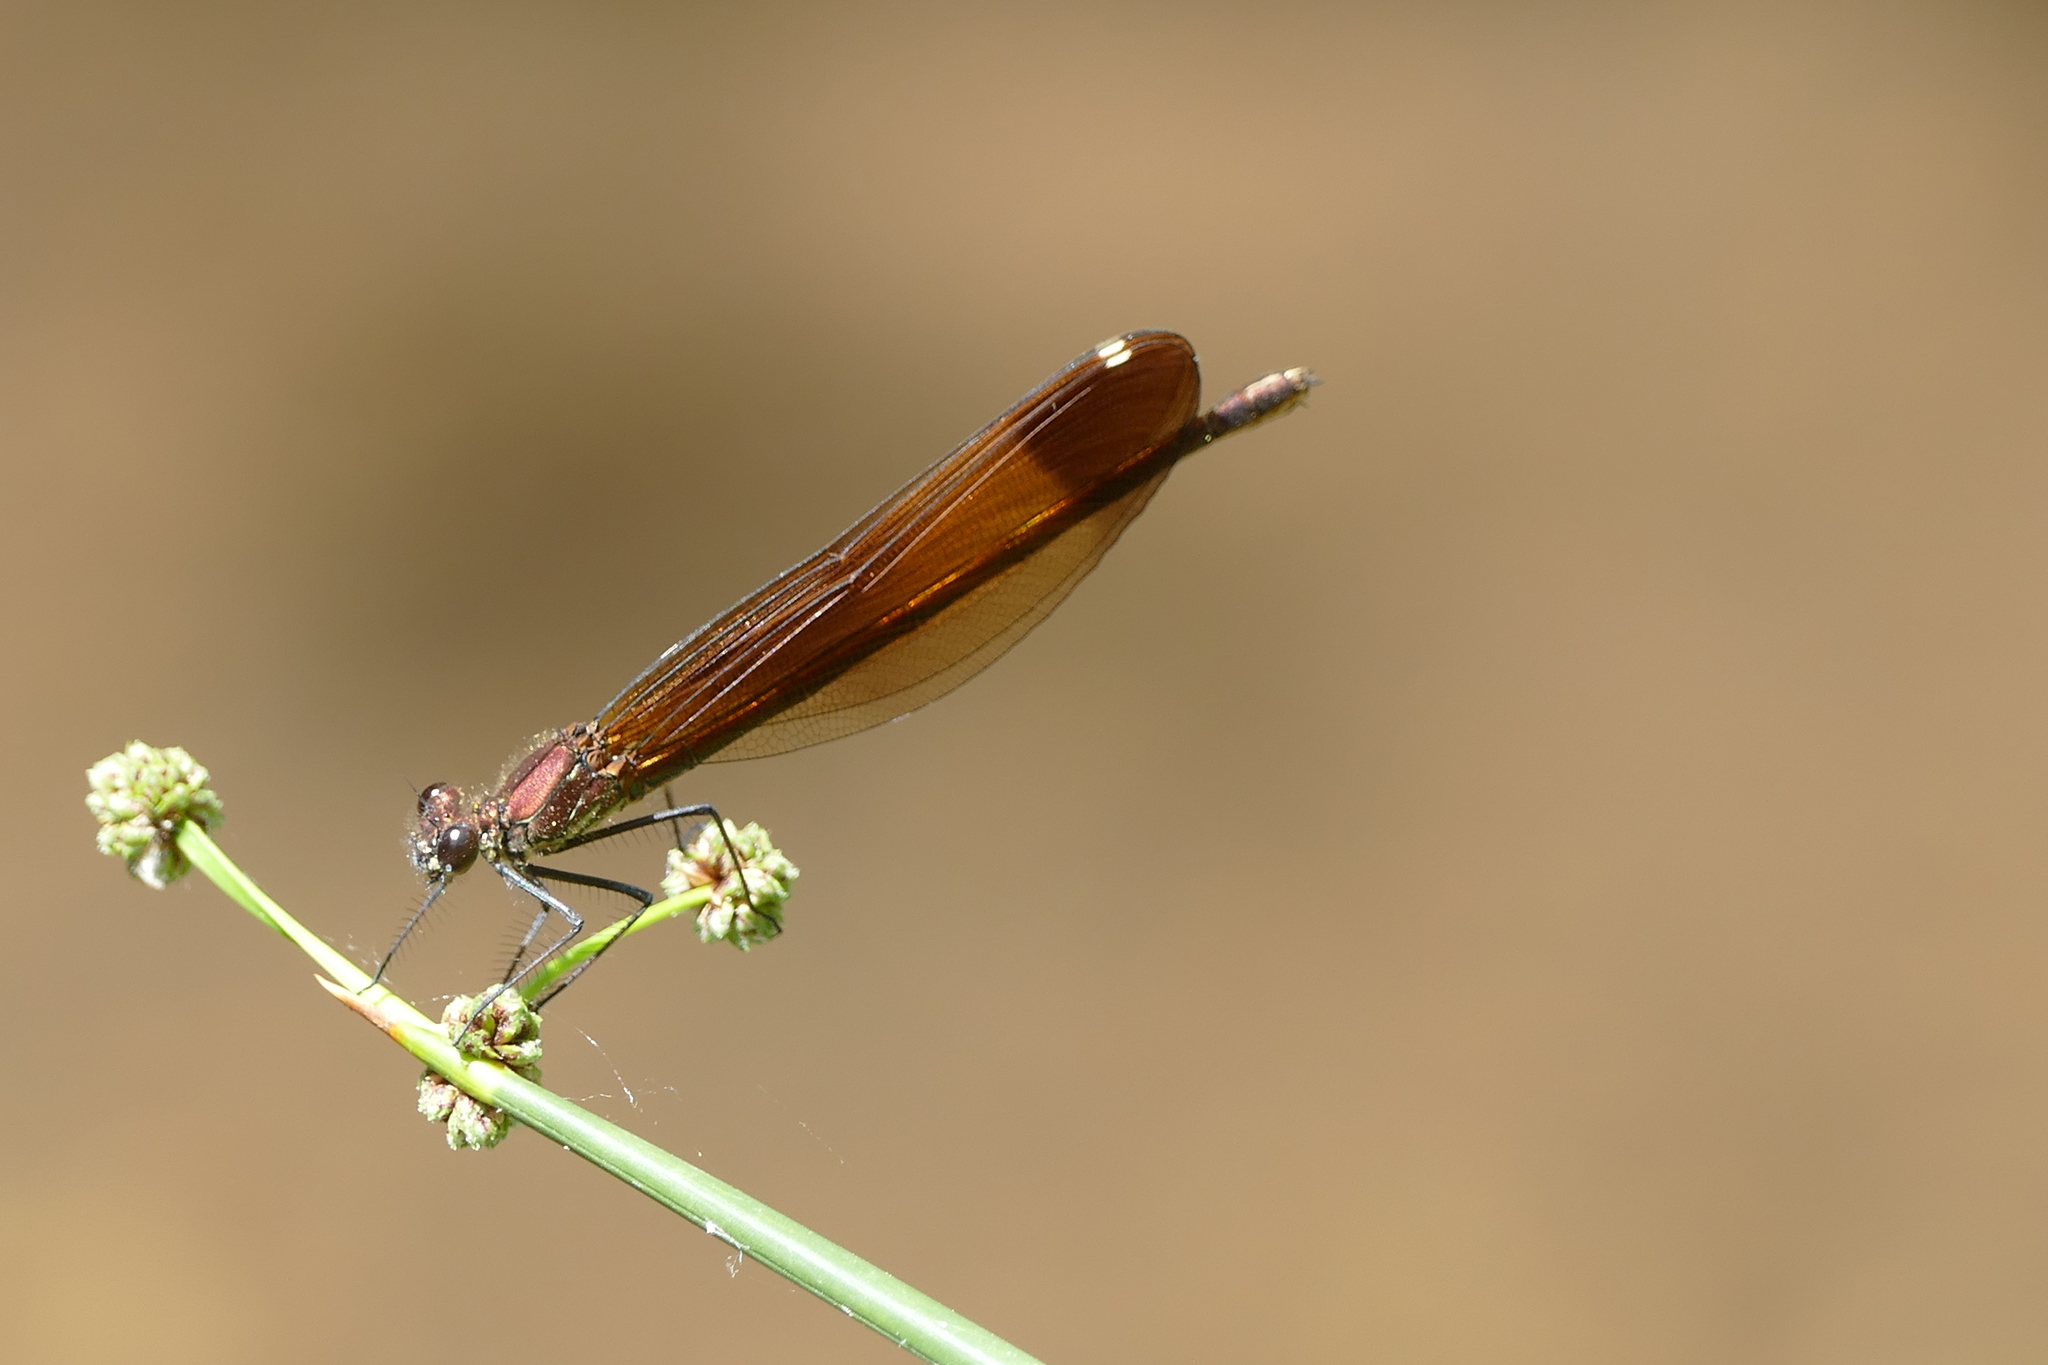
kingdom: Animalia
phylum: Arthropoda
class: Insecta
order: Odonata
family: Calopterygidae
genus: Calopteryx
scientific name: Calopteryx haemorrhoidalis
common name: Copper demoiselle
